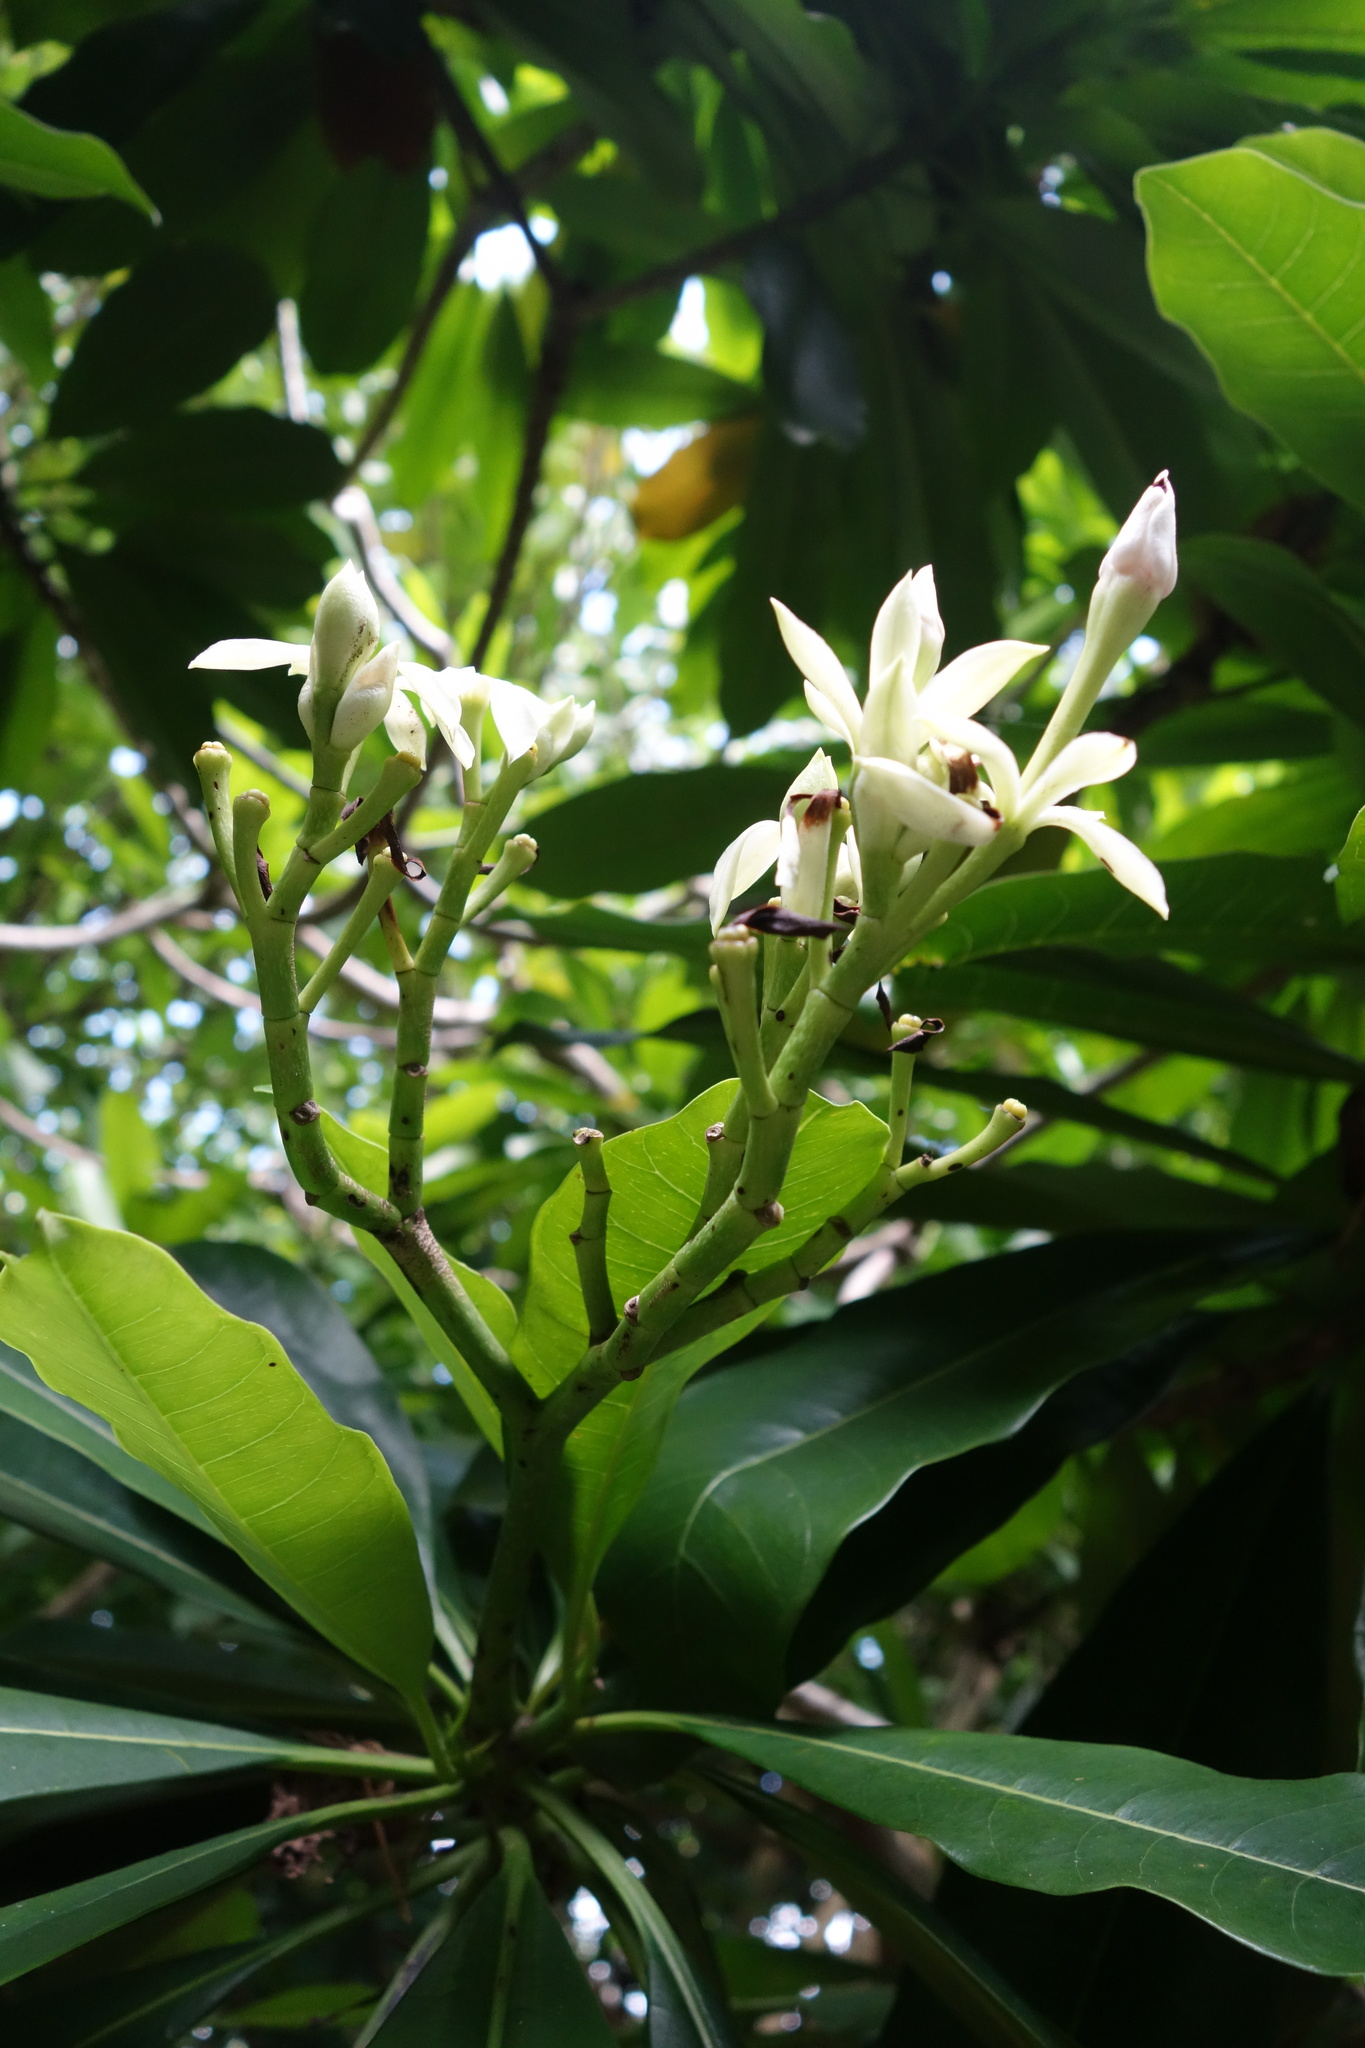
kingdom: Plantae
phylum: Tracheophyta
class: Magnoliopsida
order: Gentianales
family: Apocynaceae
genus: Cerbera
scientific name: Cerbera manghas
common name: Reva
